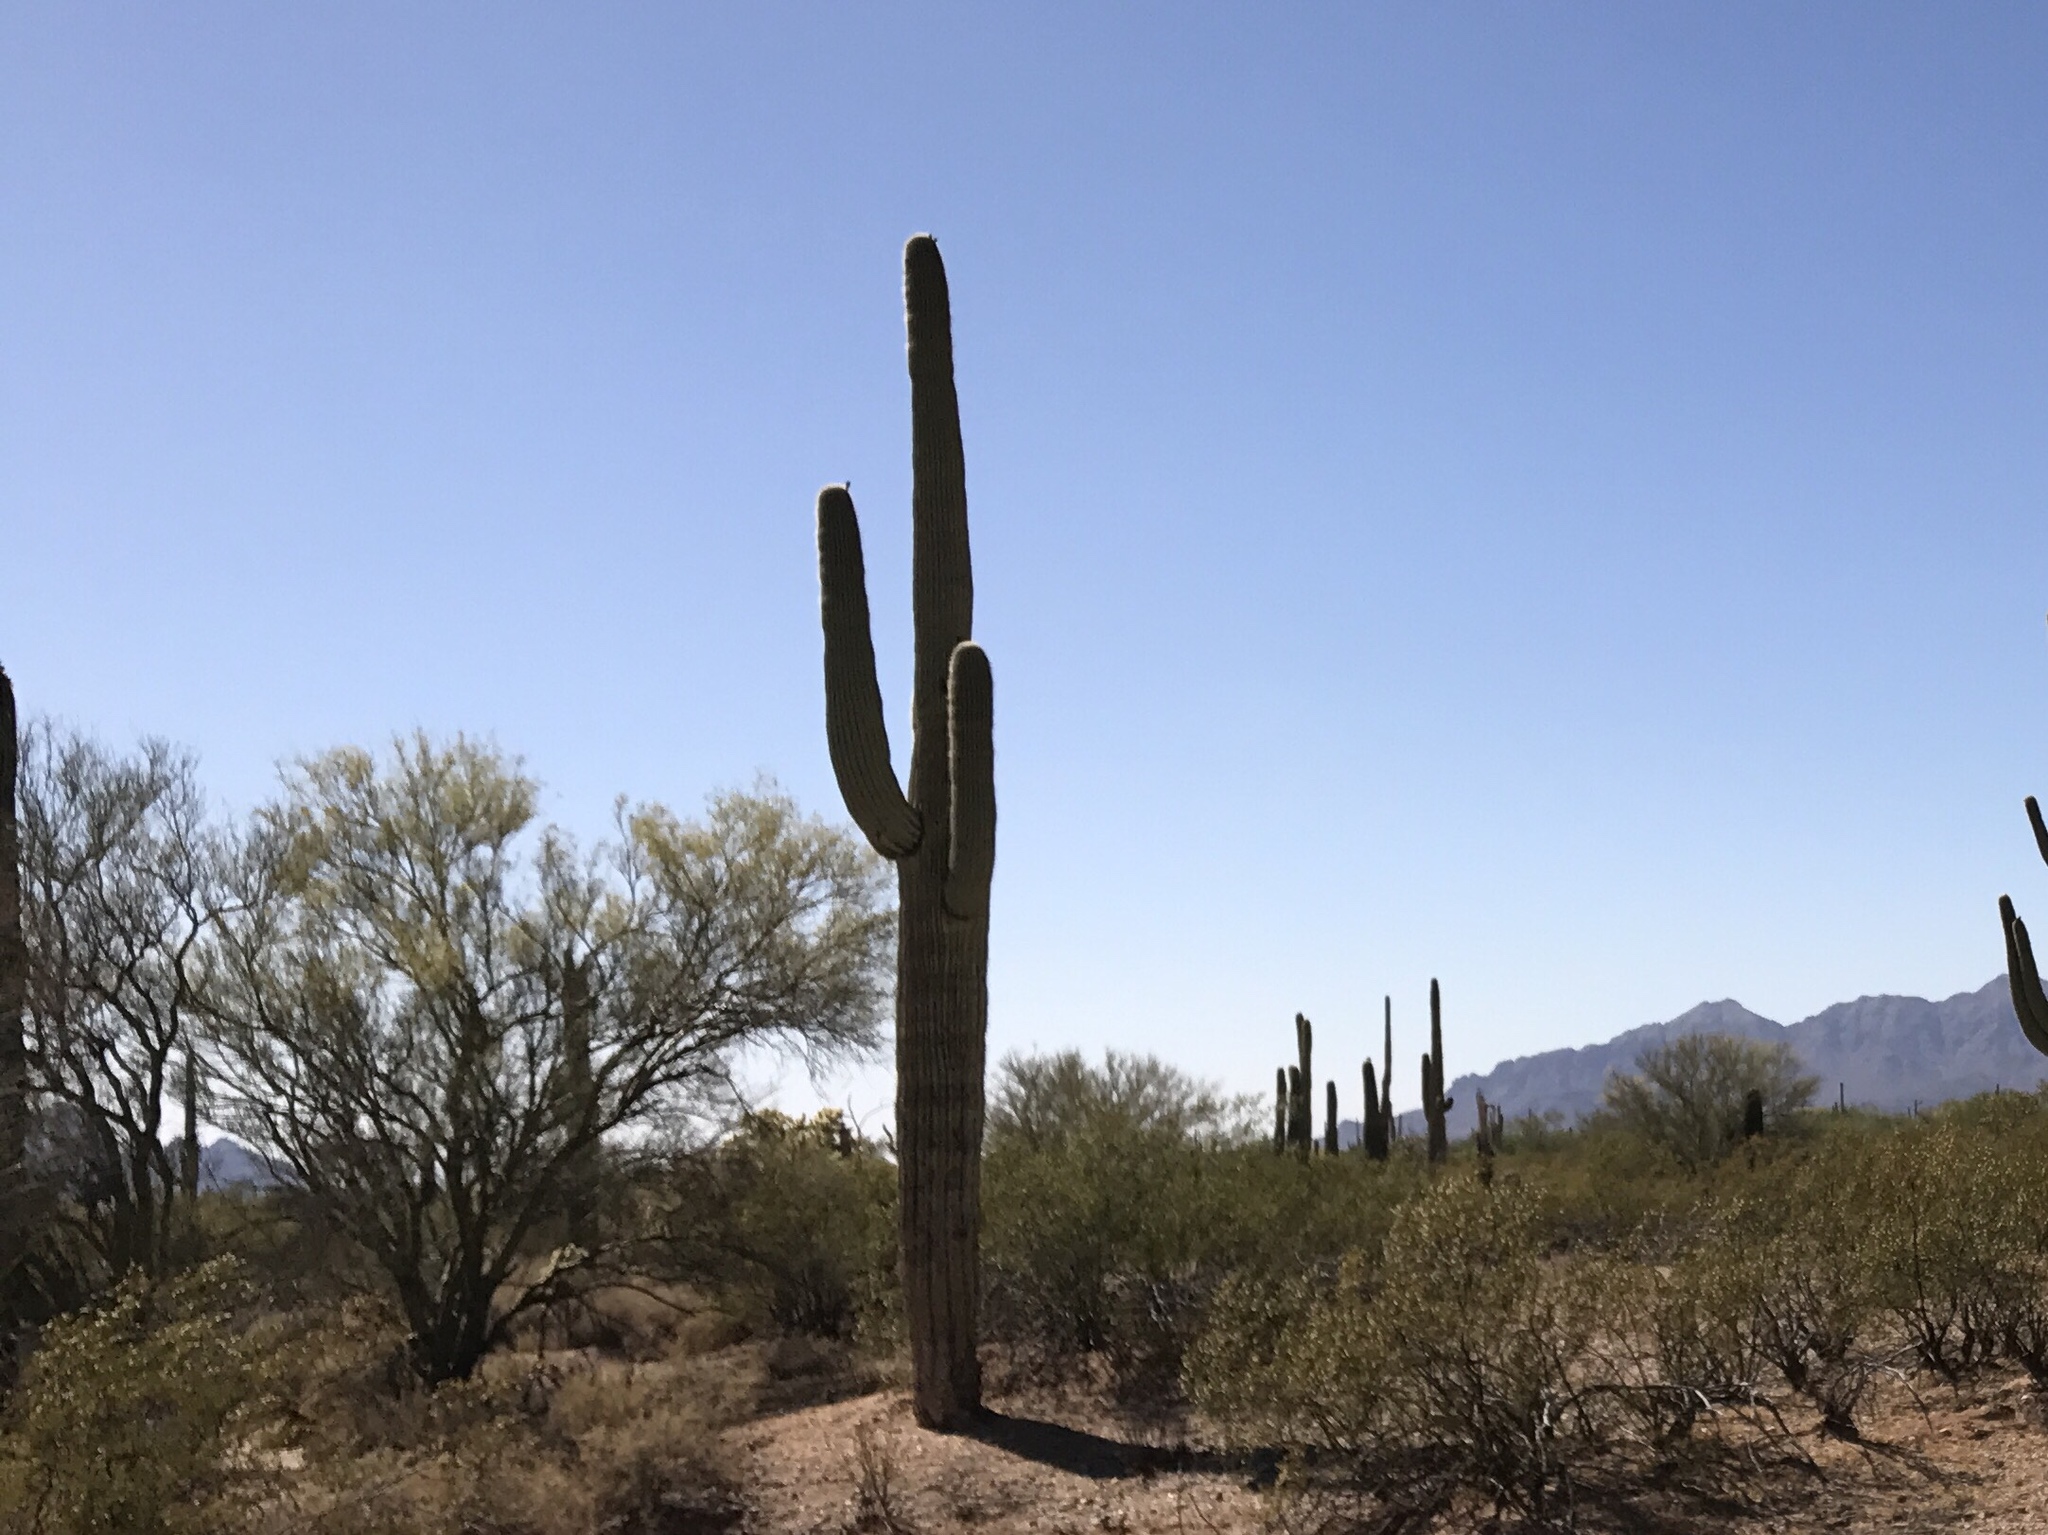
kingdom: Plantae
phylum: Tracheophyta
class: Magnoliopsida
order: Caryophyllales
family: Cactaceae
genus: Carnegiea
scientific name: Carnegiea gigantea
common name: Saguaro
